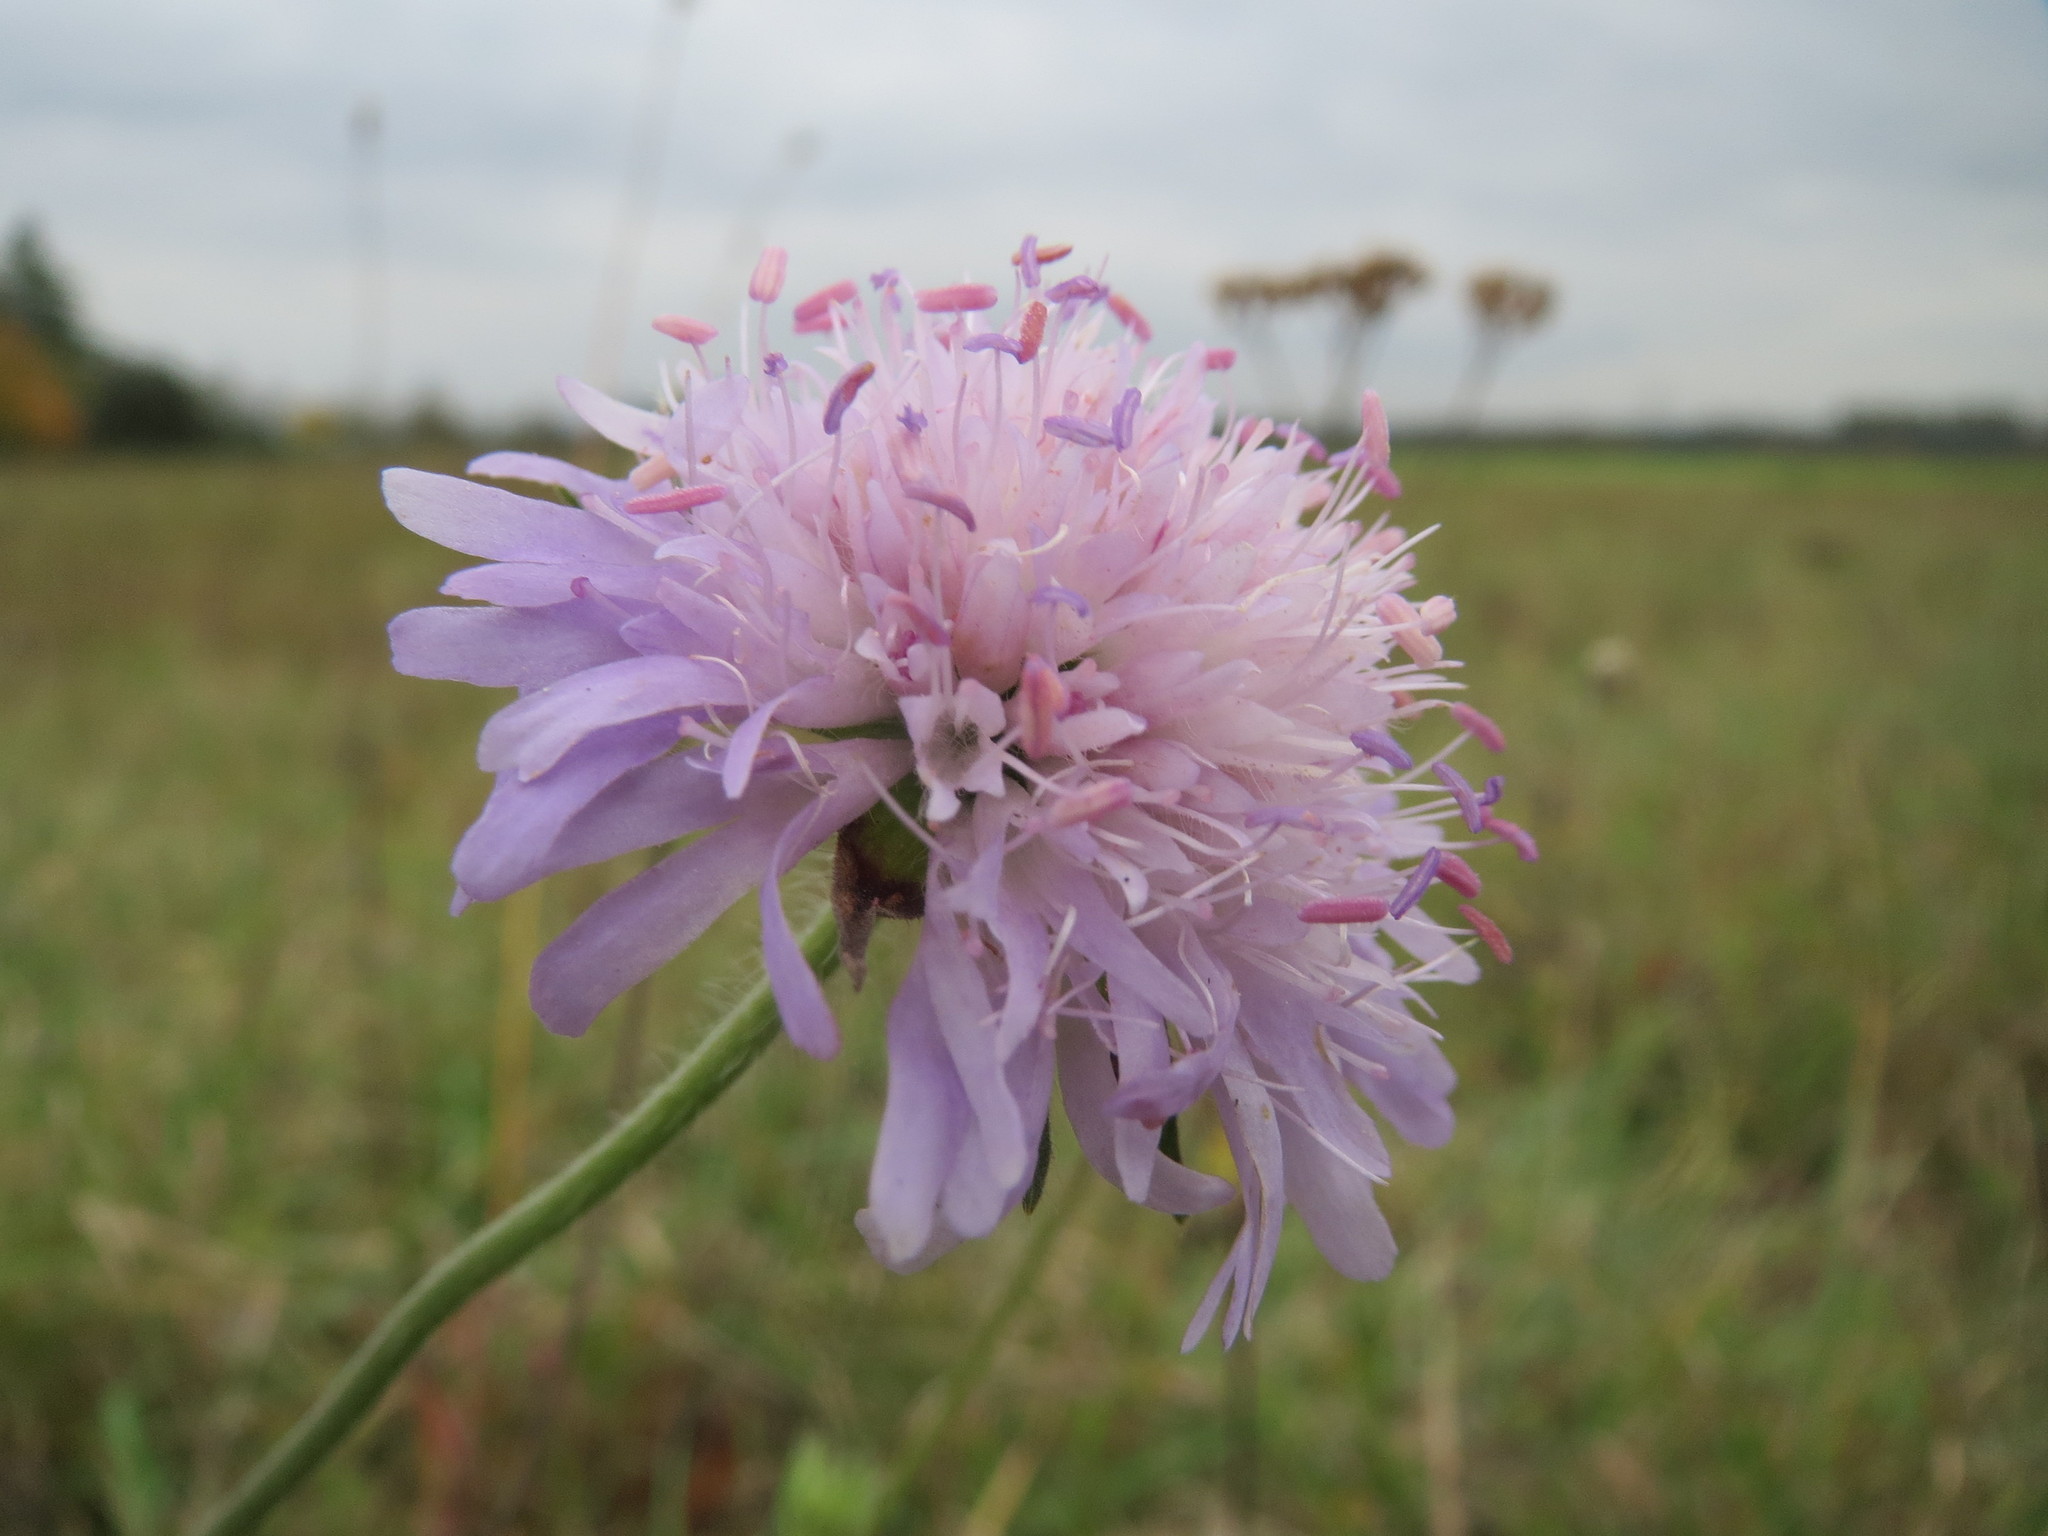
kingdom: Plantae
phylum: Tracheophyta
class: Magnoliopsida
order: Dipsacales
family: Caprifoliaceae
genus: Knautia
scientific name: Knautia arvensis
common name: Field scabiosa
